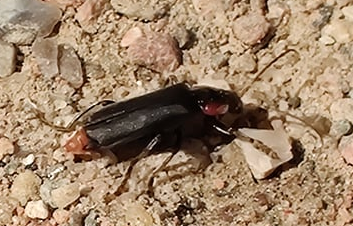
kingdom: Animalia
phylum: Arthropoda
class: Insecta
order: Coleoptera
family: Cantharidae
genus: Cantharis
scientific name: Cantharis fusca
